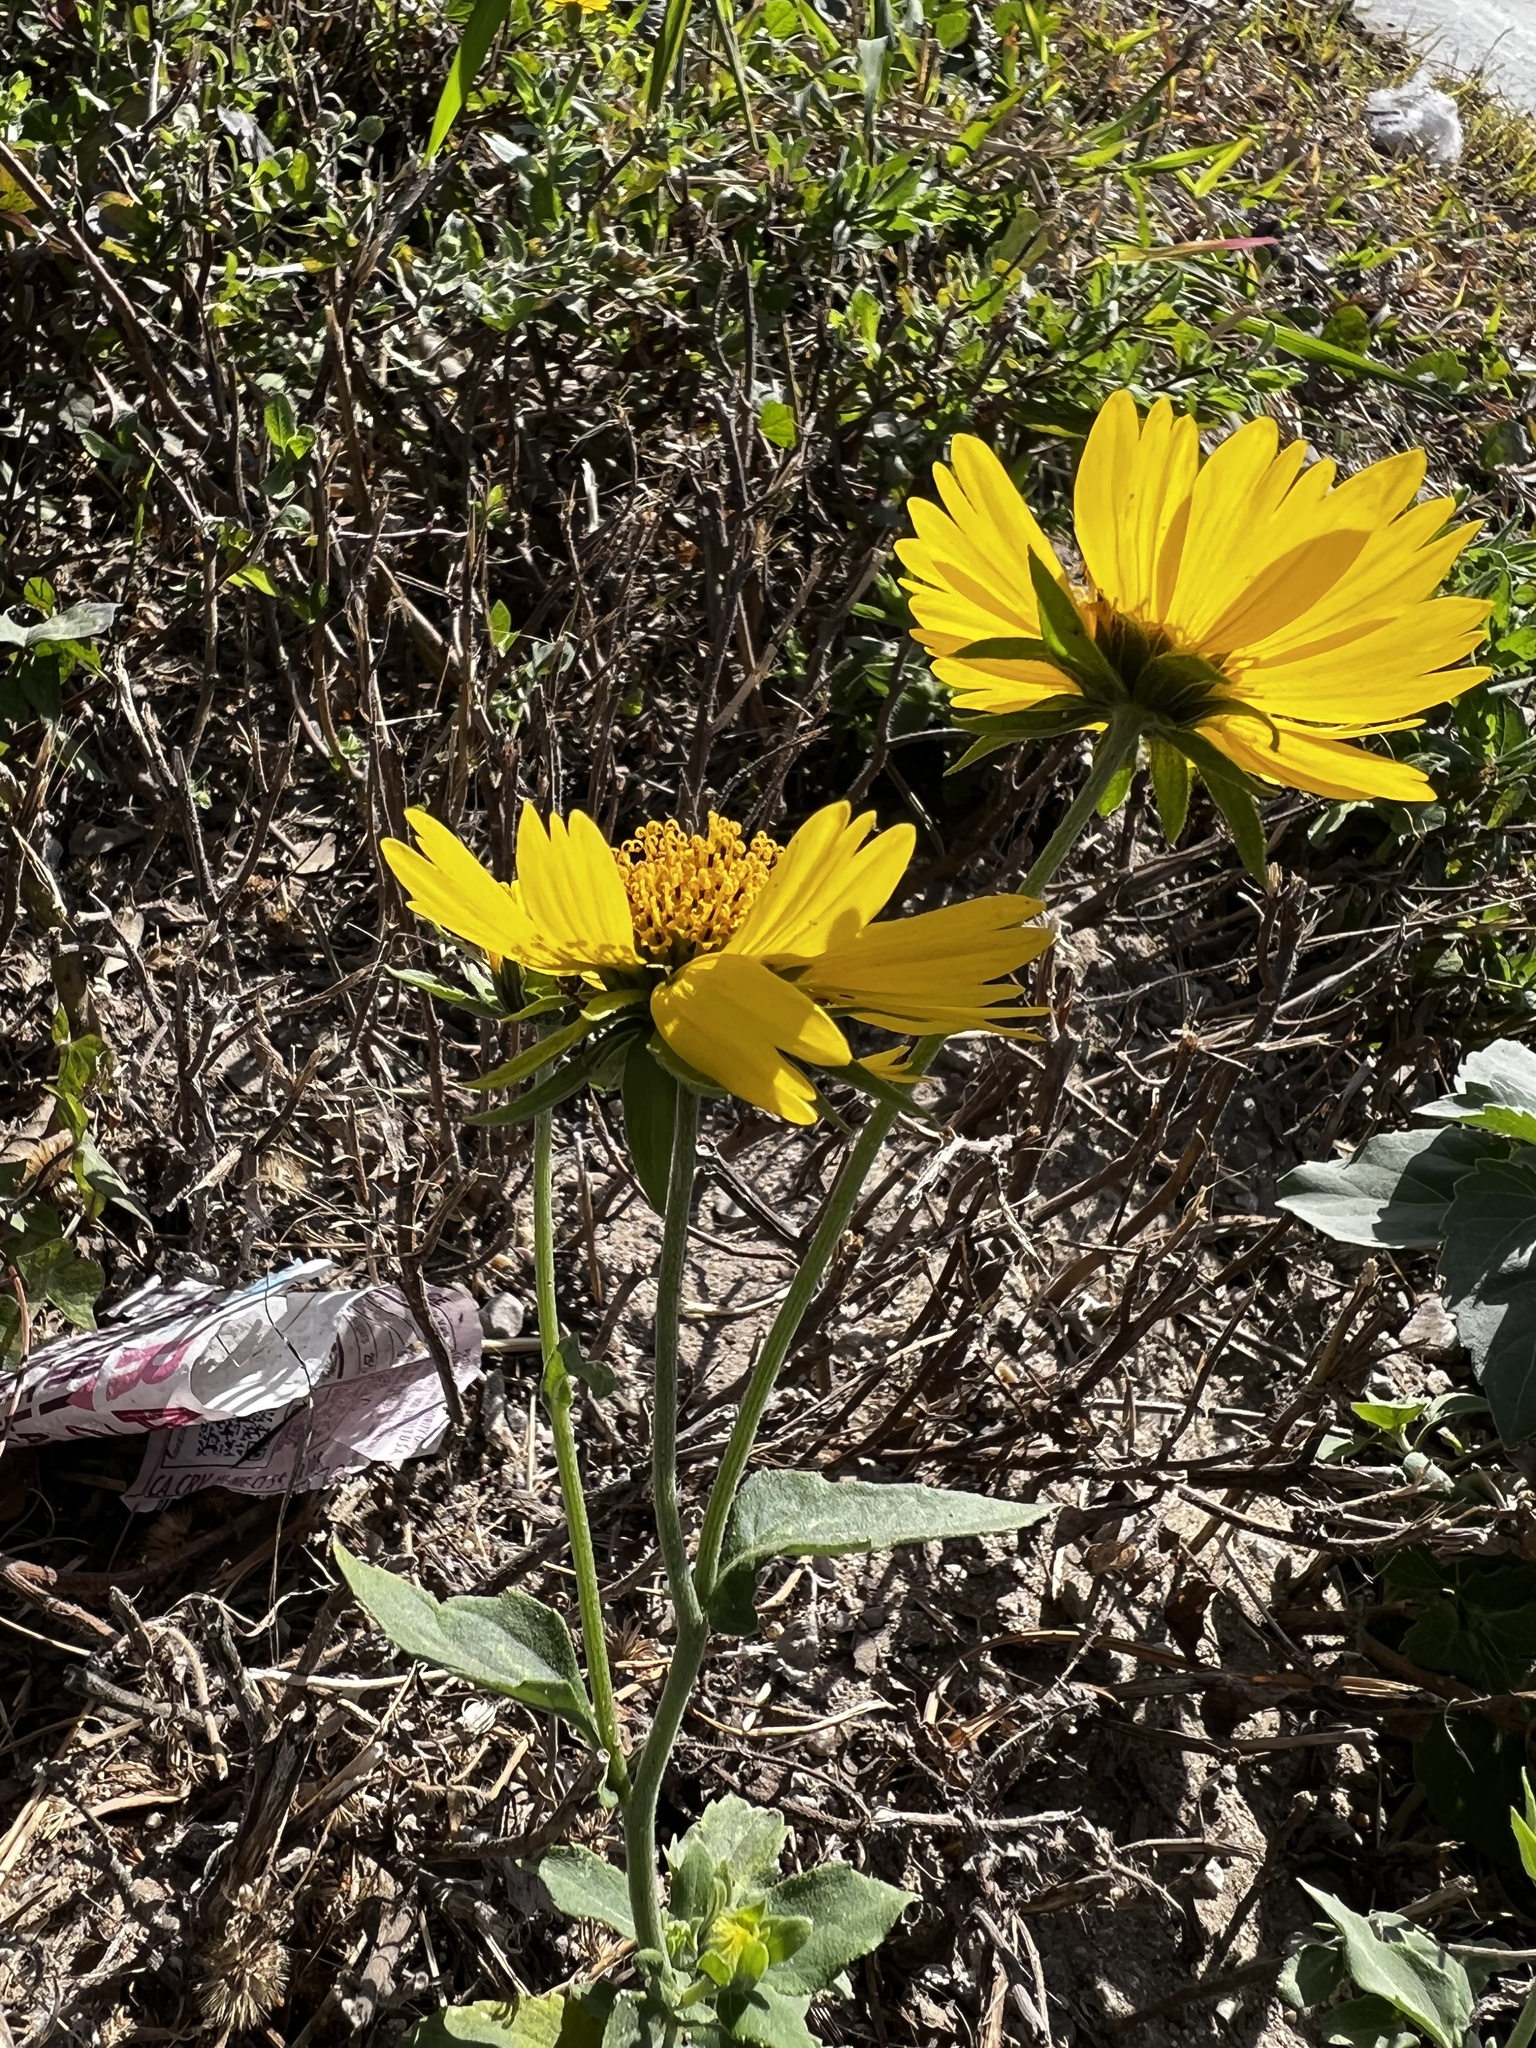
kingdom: Plantae
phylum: Tracheophyta
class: Magnoliopsida
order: Asterales
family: Asteraceae
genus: Verbesina
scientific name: Verbesina encelioides
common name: Golden crownbeard
